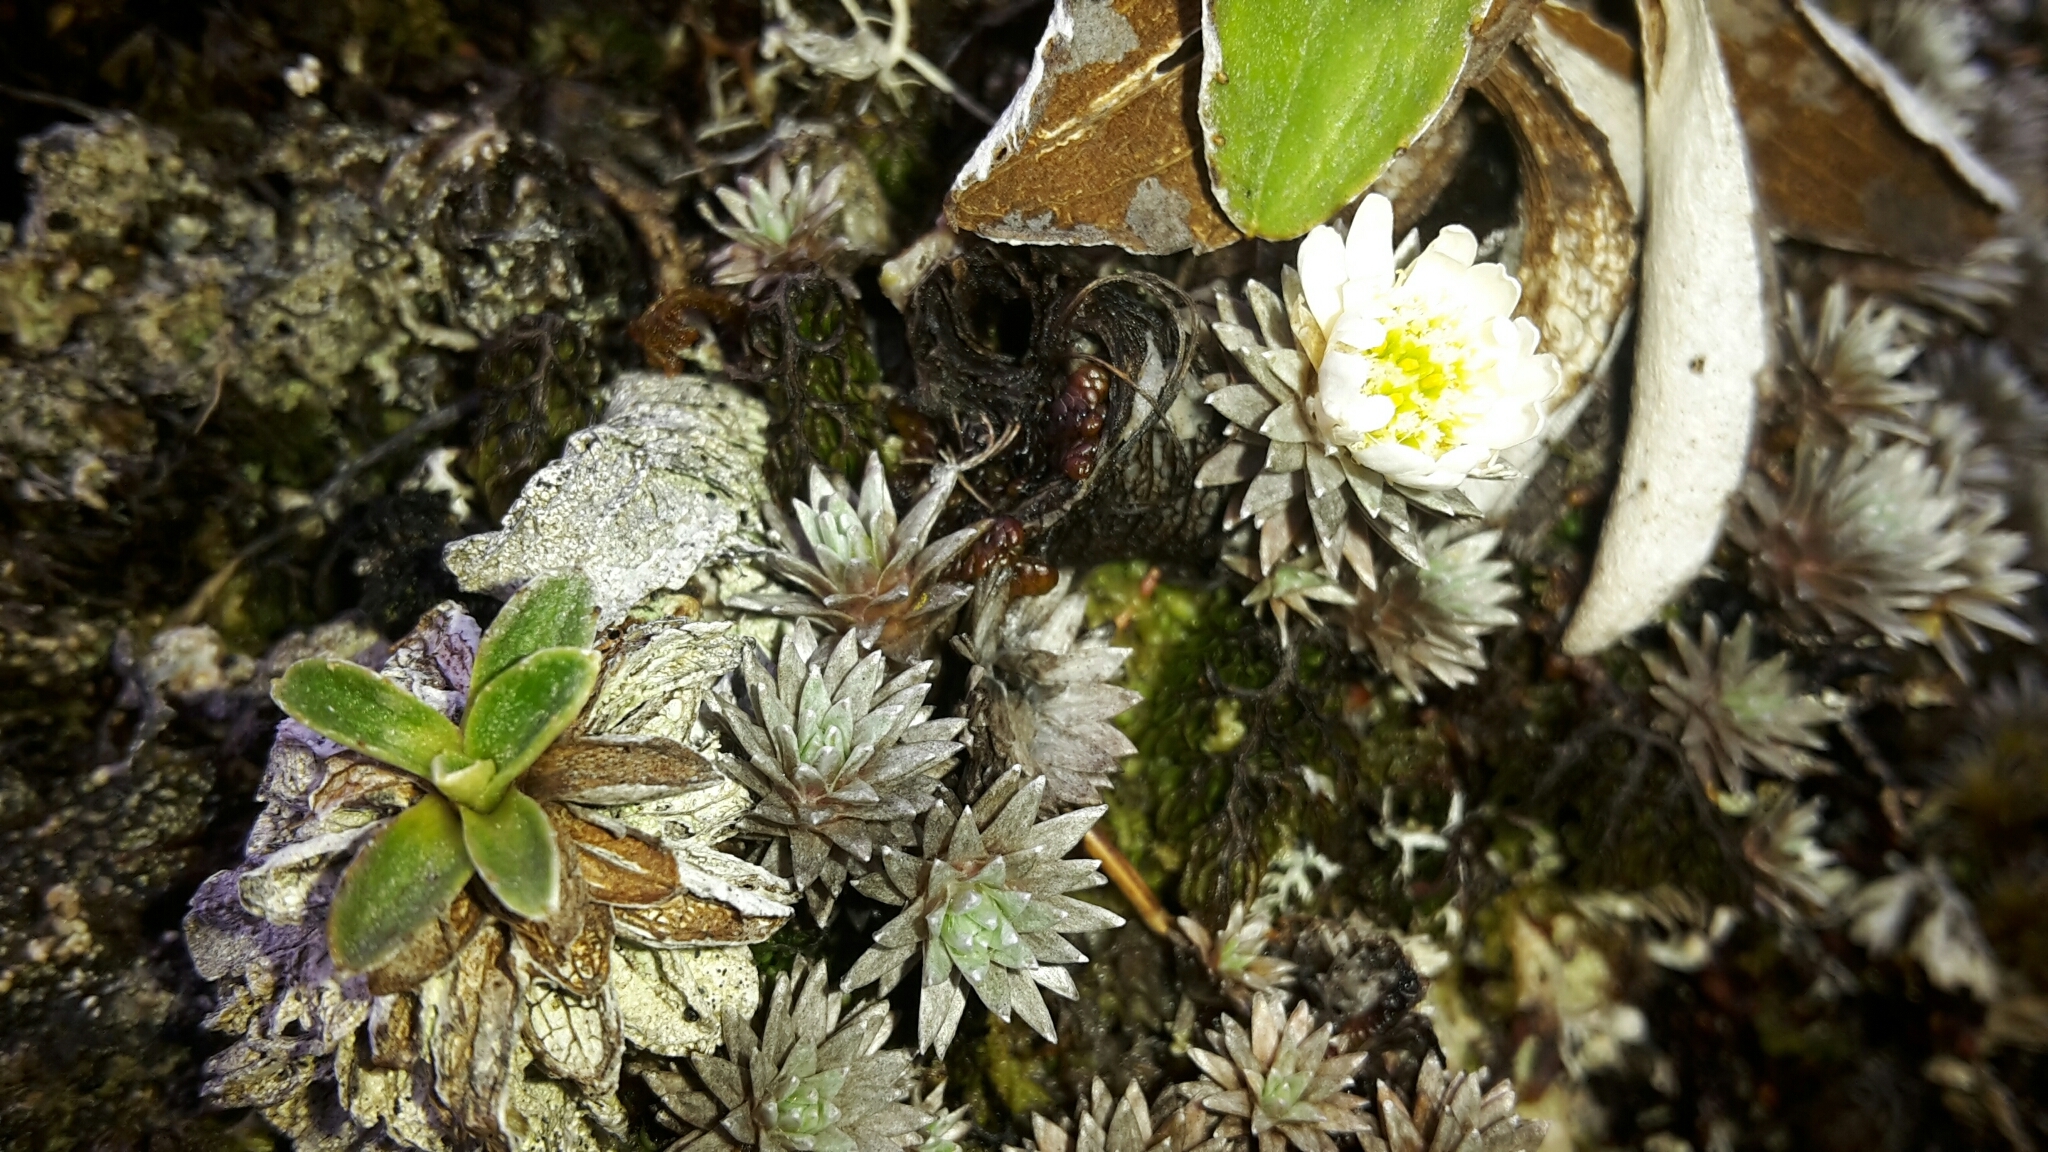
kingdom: Plantae
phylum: Tracheophyta
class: Magnoliopsida
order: Asterales
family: Asteraceae
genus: Raoulia
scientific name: Raoulia grandiflora
